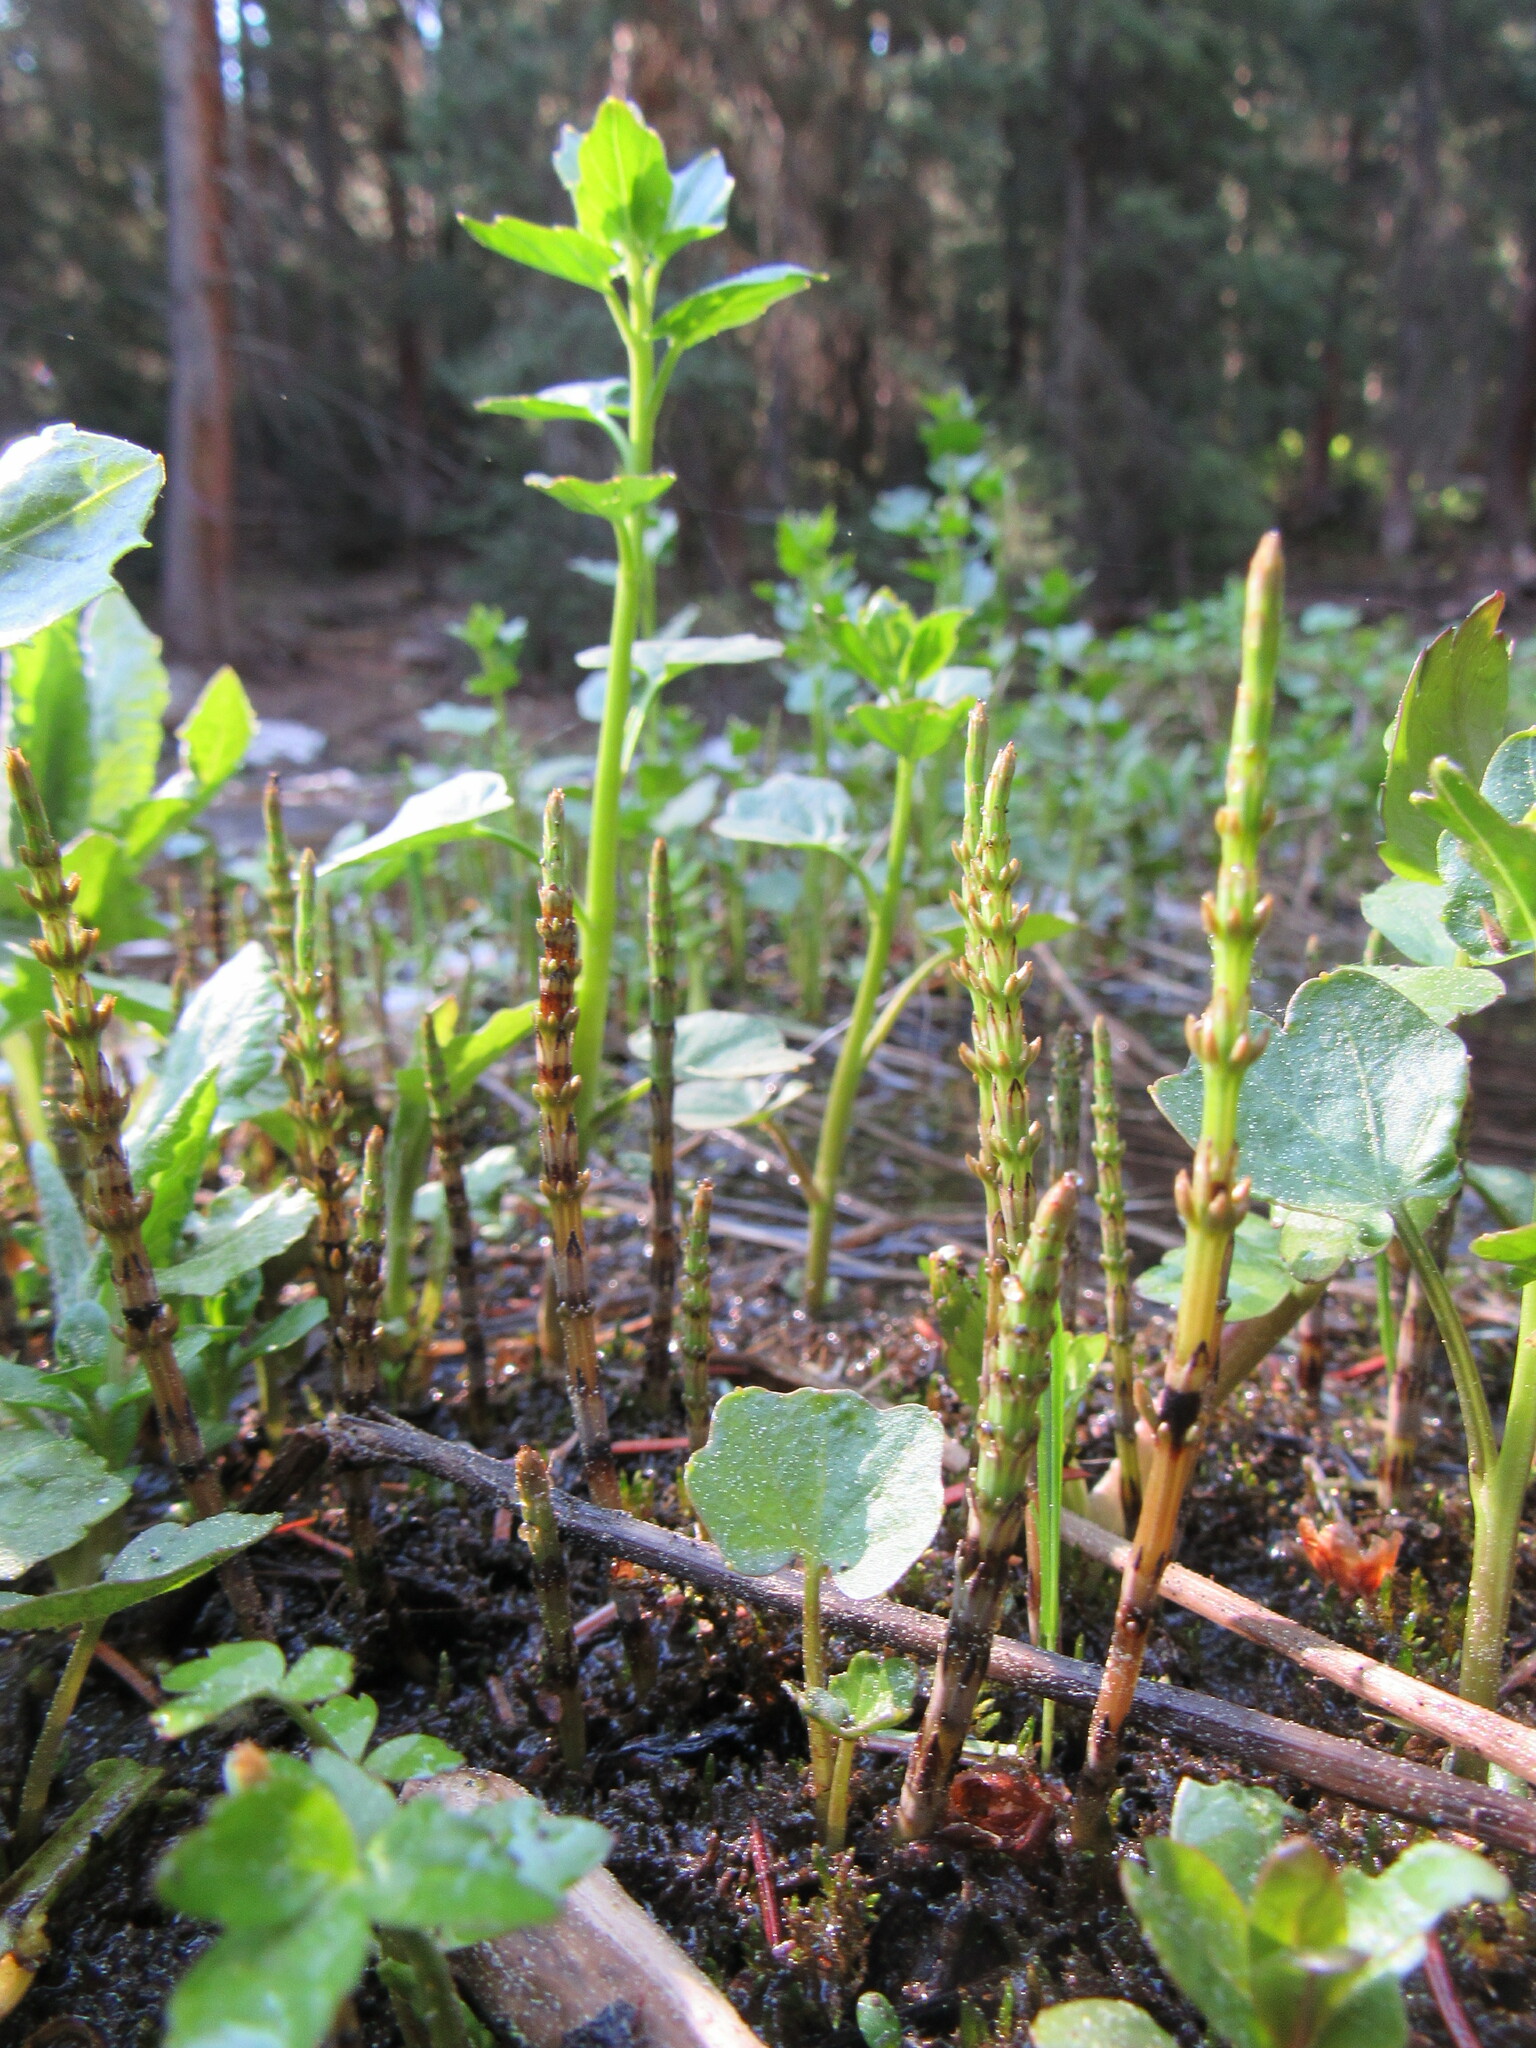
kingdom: Plantae
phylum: Tracheophyta
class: Polypodiopsida
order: Equisetales
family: Equisetaceae
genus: Equisetum
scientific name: Equisetum arvense
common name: Field horsetail
